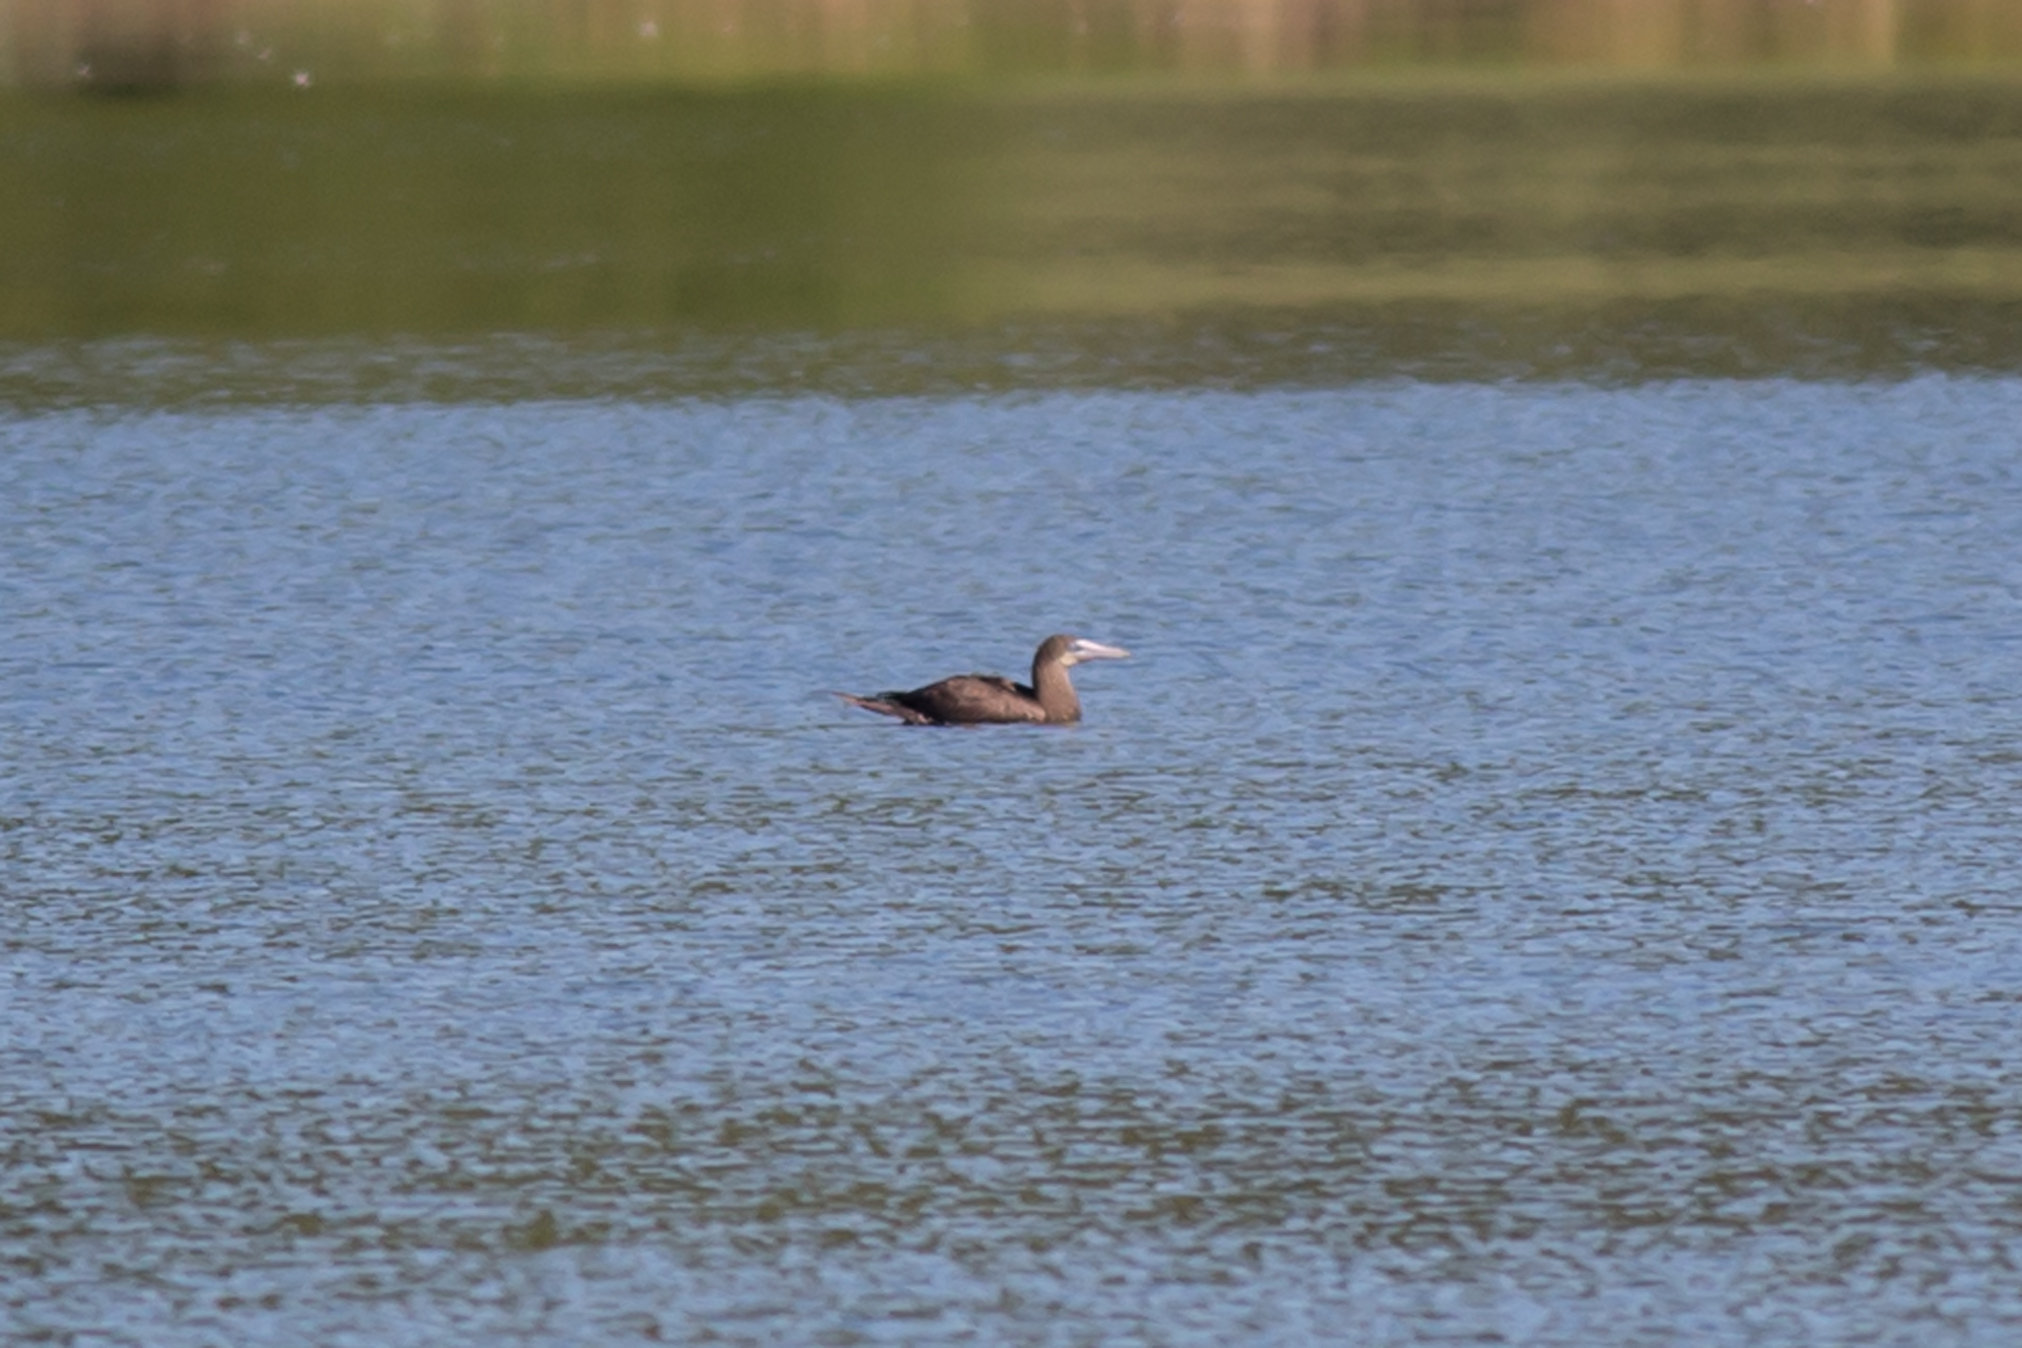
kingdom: Animalia
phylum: Chordata
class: Aves
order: Suliformes
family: Sulidae
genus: Sula
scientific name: Sula leucogaster
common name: Brown booby
